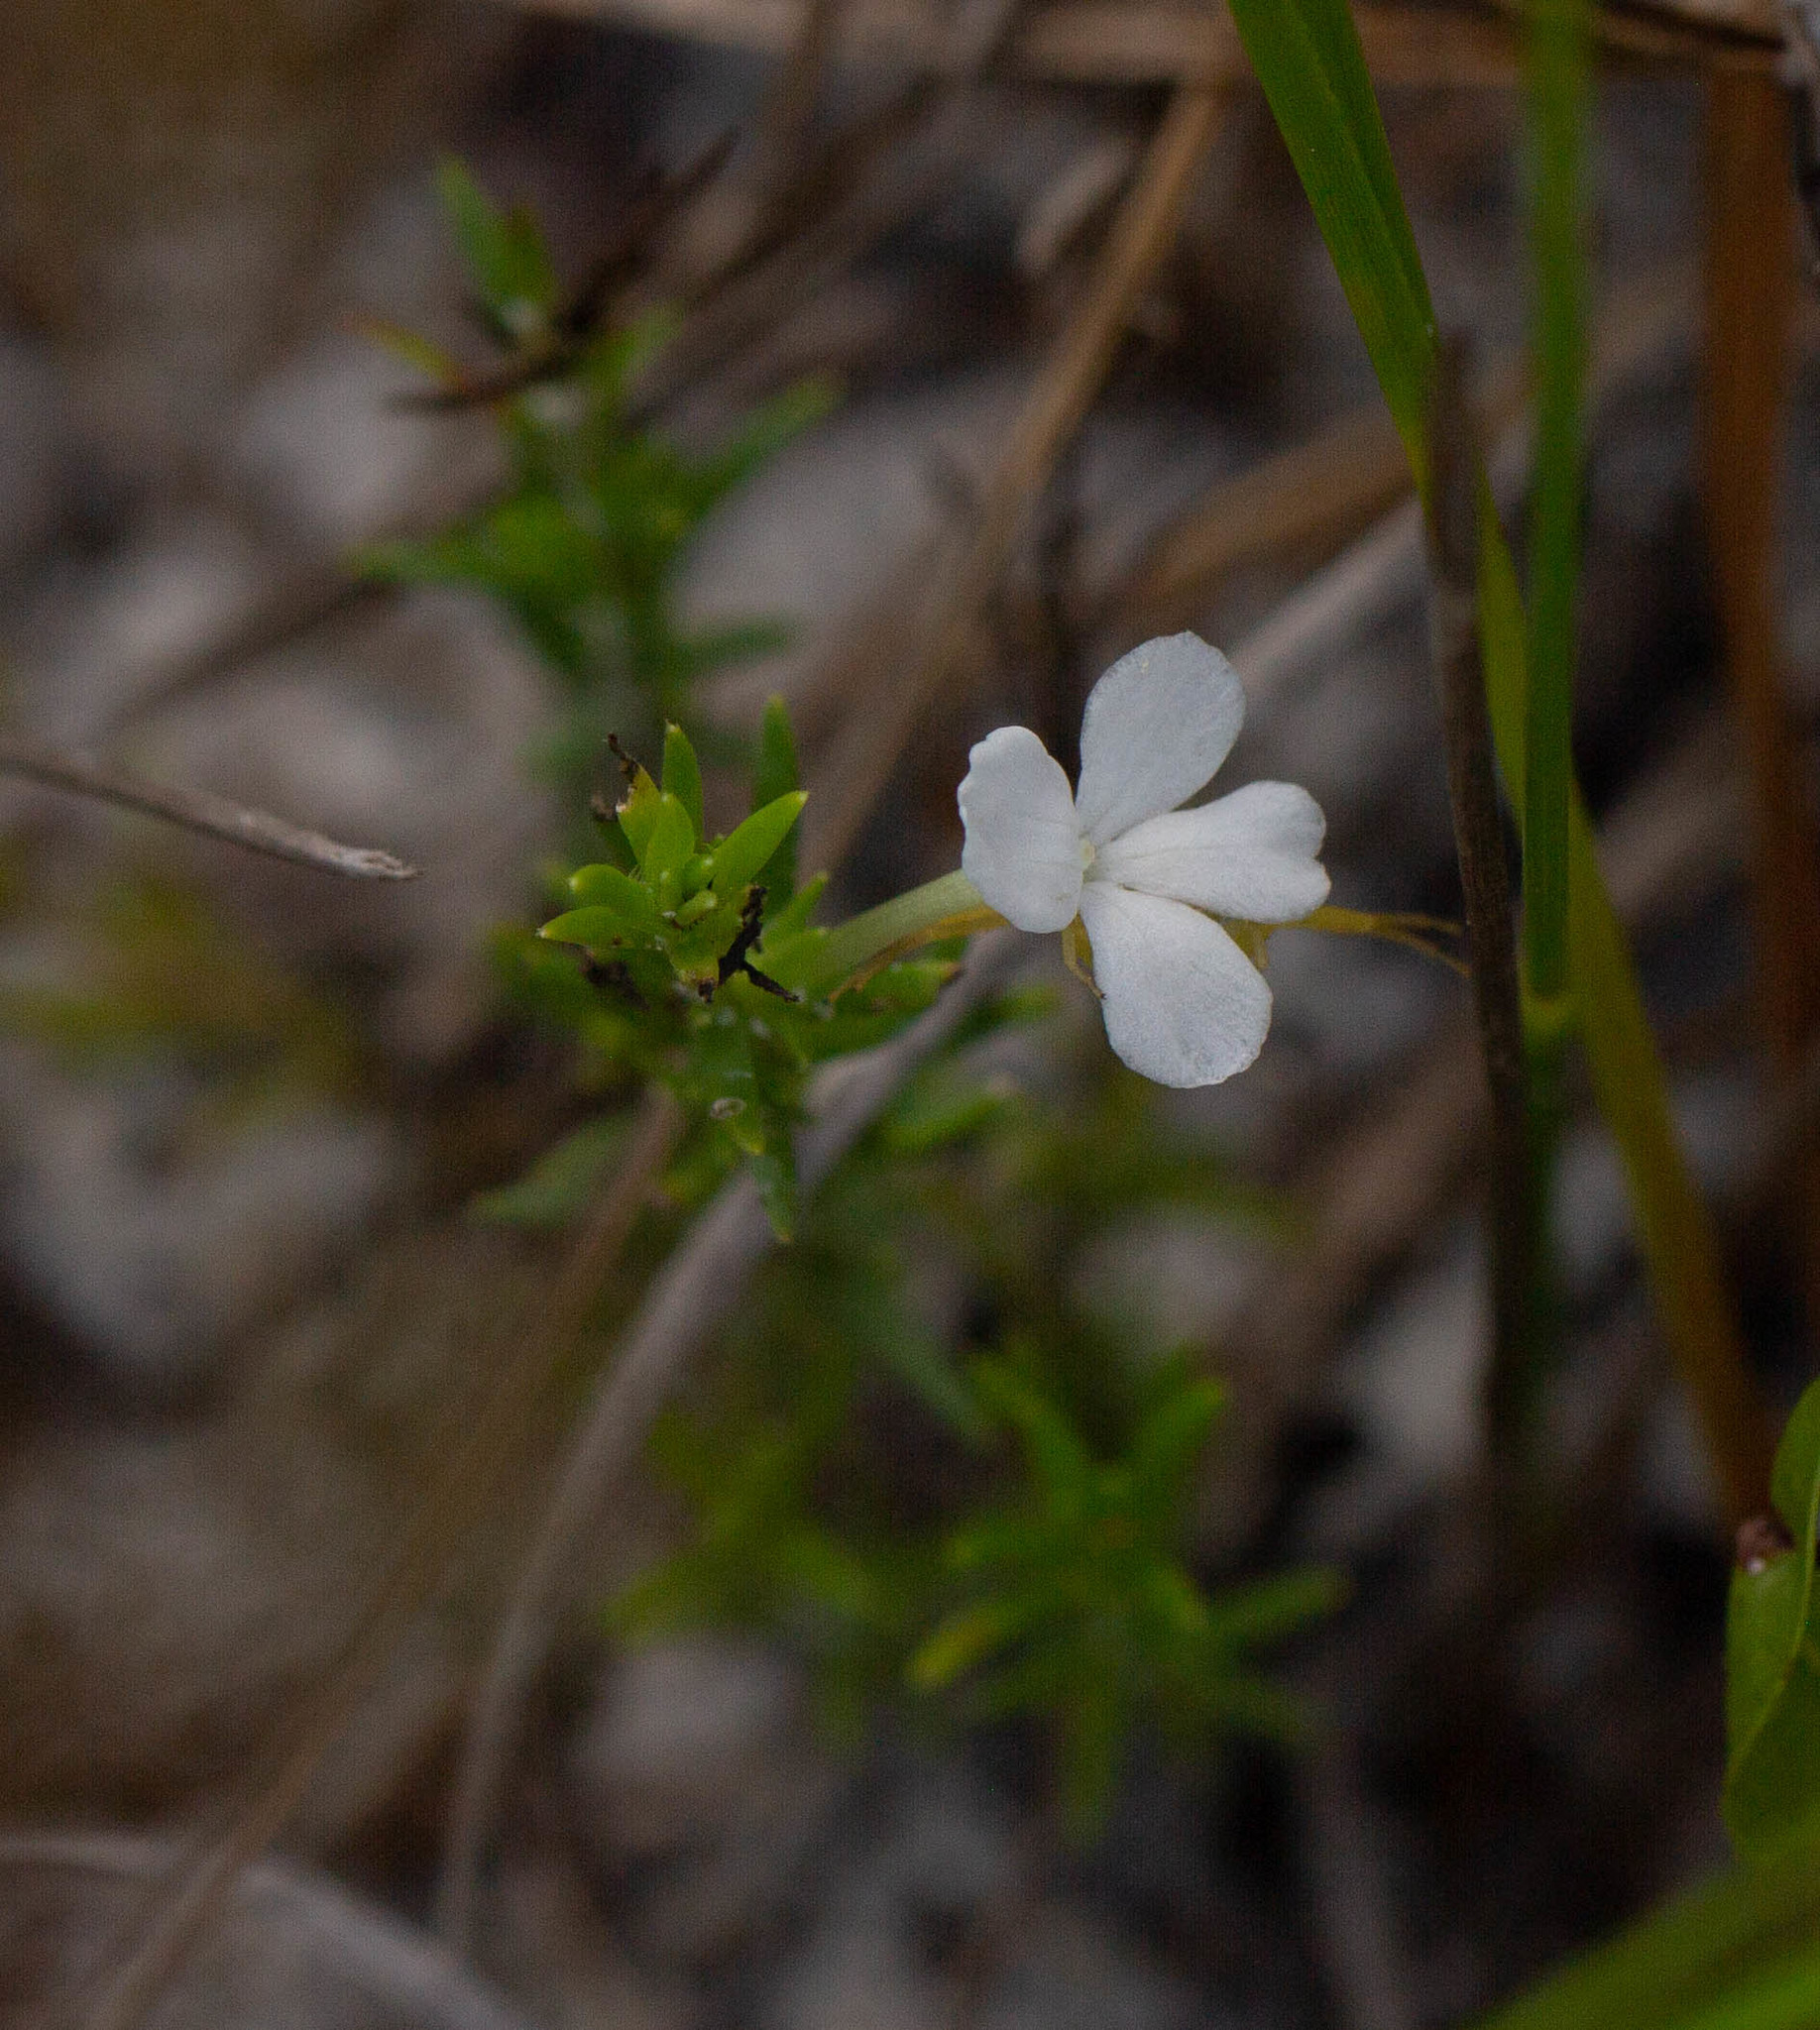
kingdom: Plantae
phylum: Tracheophyta
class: Magnoliopsida
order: Lamiales
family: Plantaginaceae
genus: Gratiola
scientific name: Gratiola hispida
